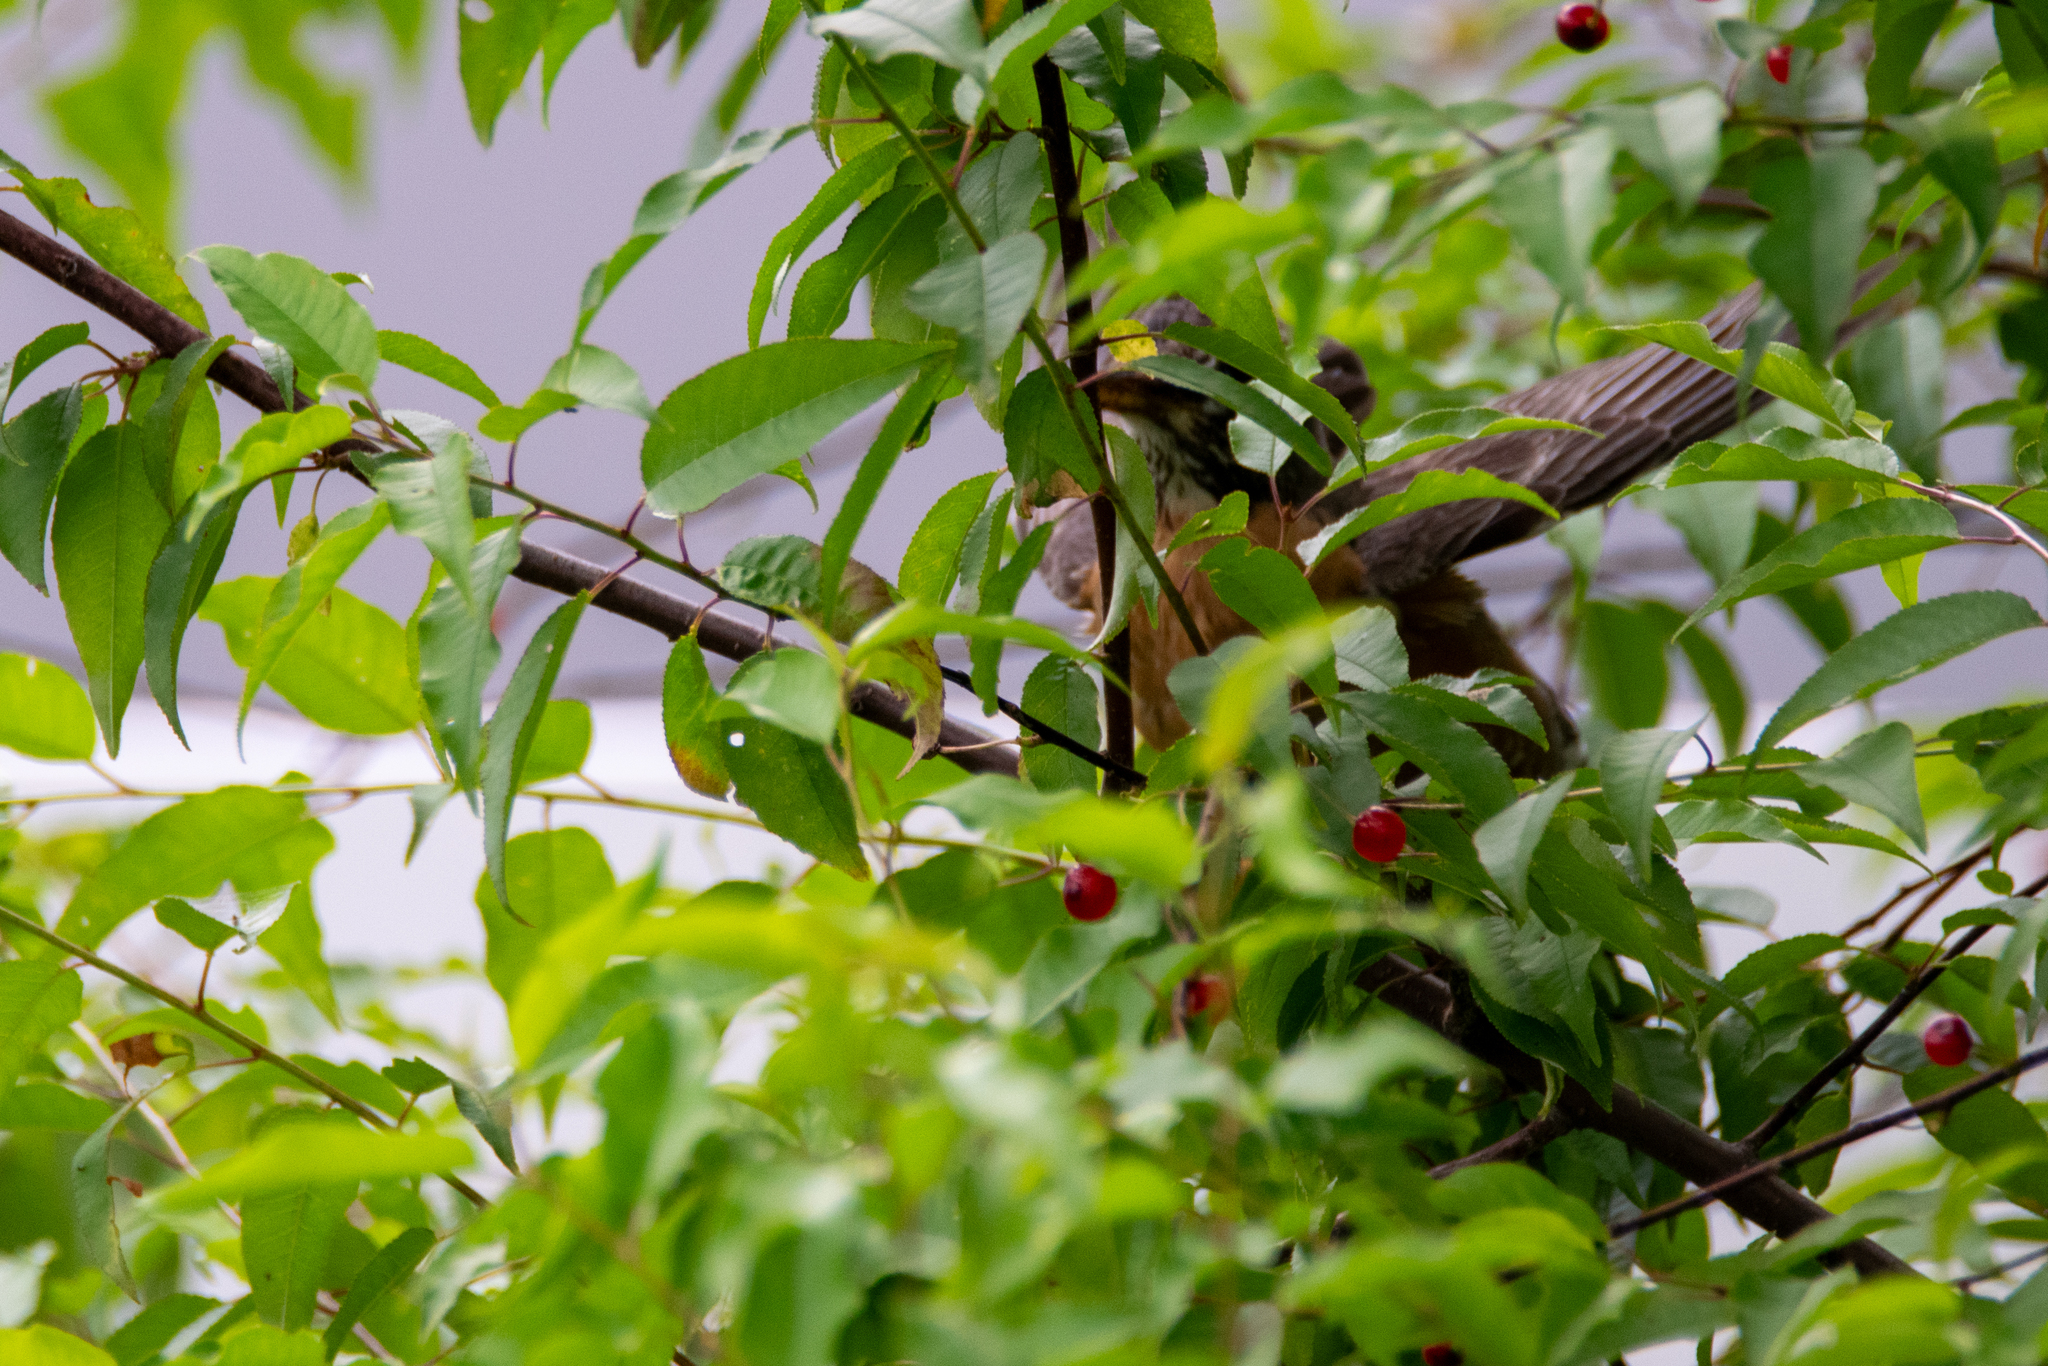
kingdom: Animalia
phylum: Chordata
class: Aves
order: Passeriformes
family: Turdidae
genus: Turdus
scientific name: Turdus migratorius
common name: American robin
